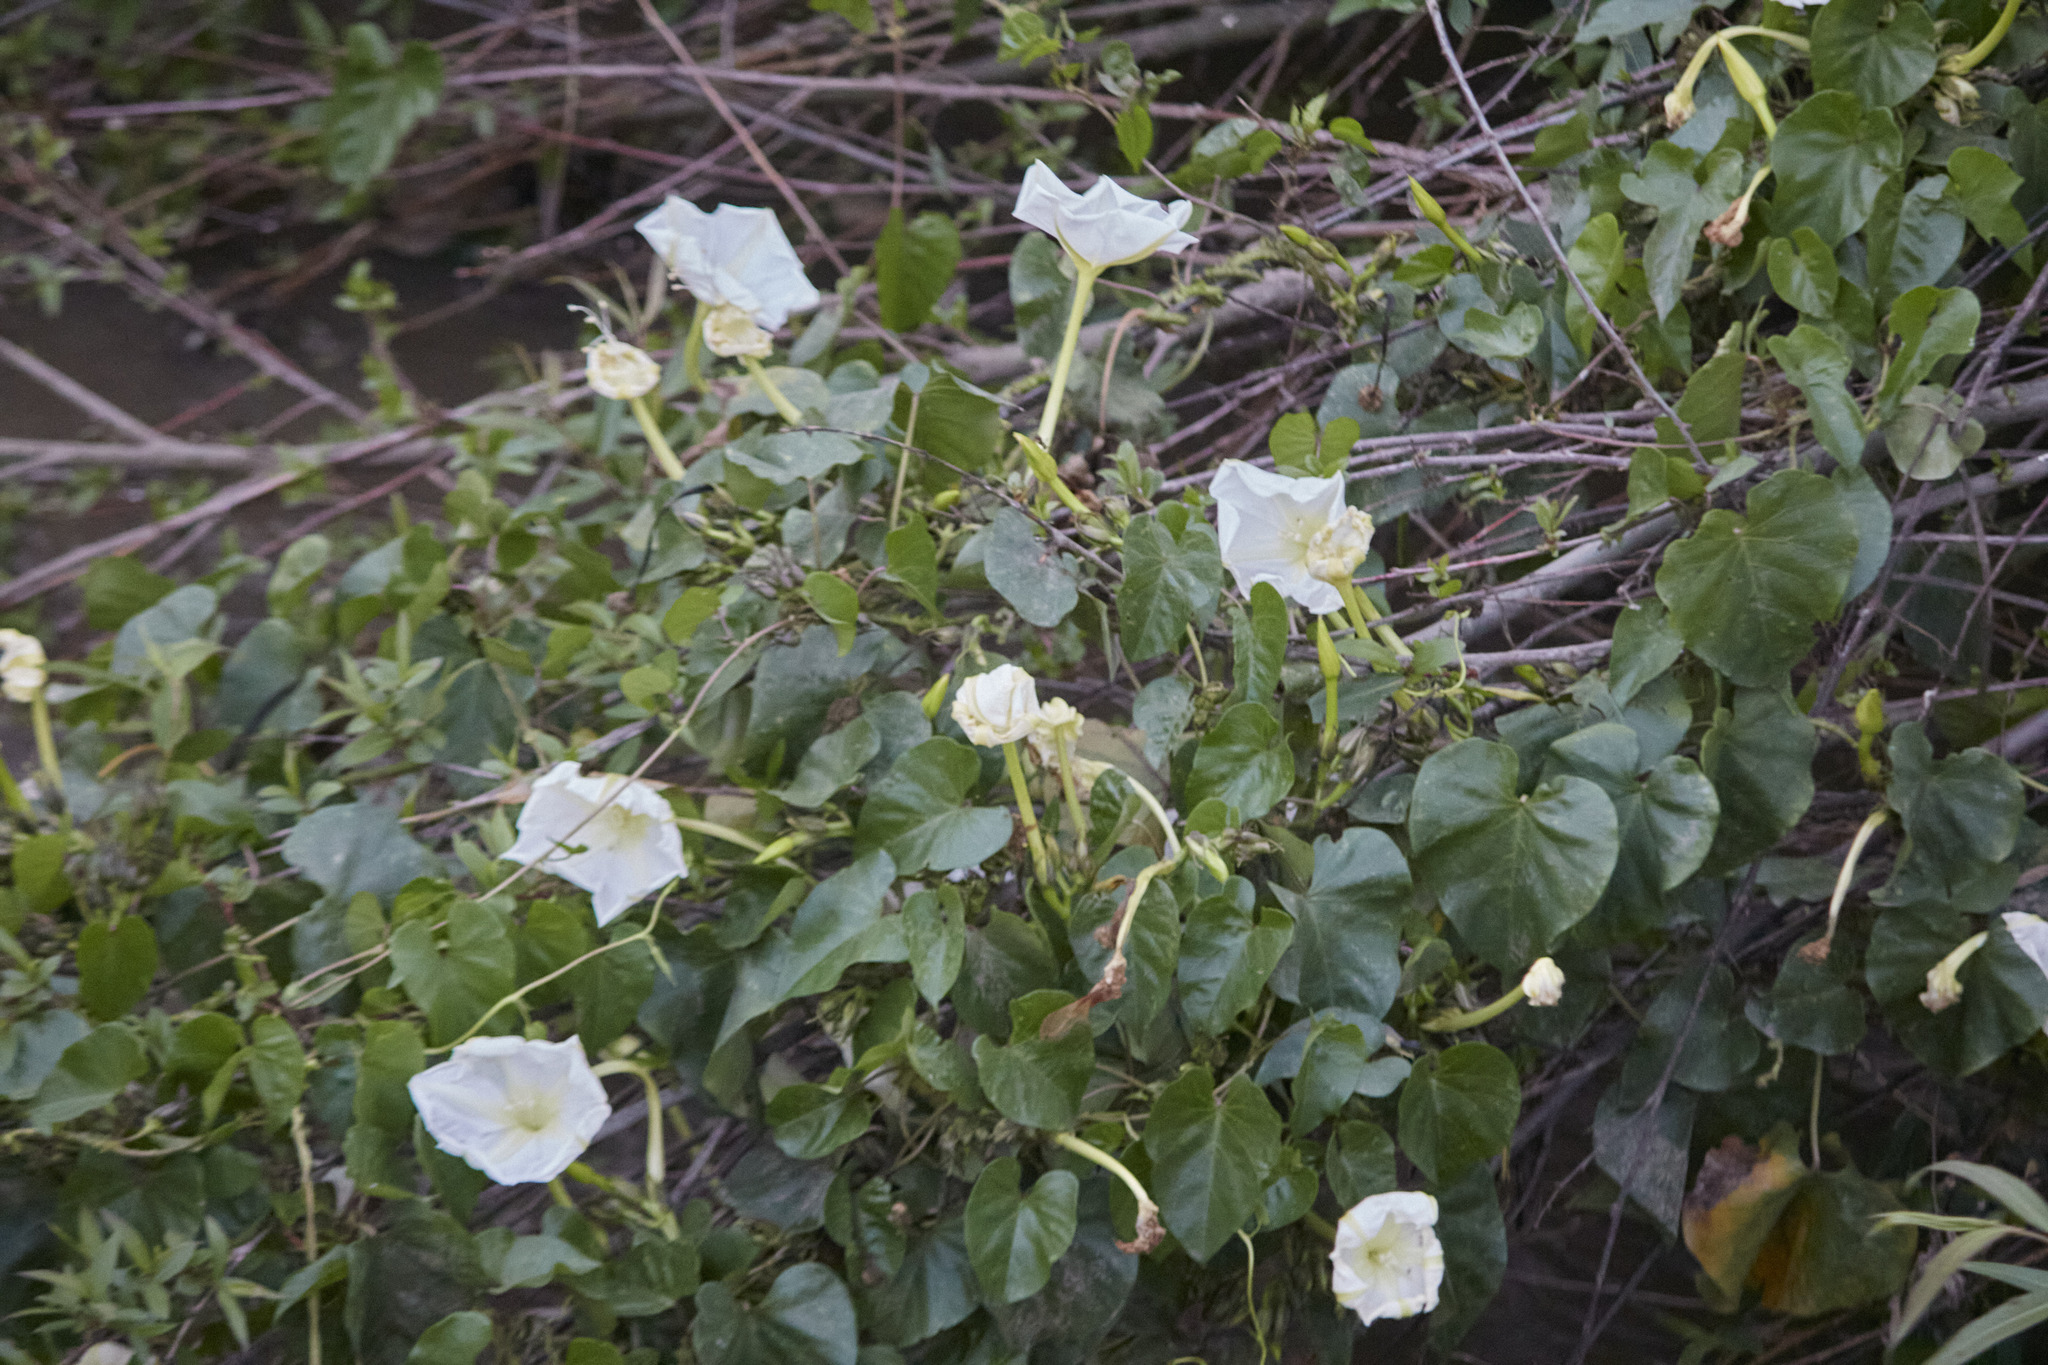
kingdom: Plantae
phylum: Tracheophyta
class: Magnoliopsida
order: Solanales
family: Convolvulaceae
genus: Ipomoea
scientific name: Ipomoea alba
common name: Moonflower
